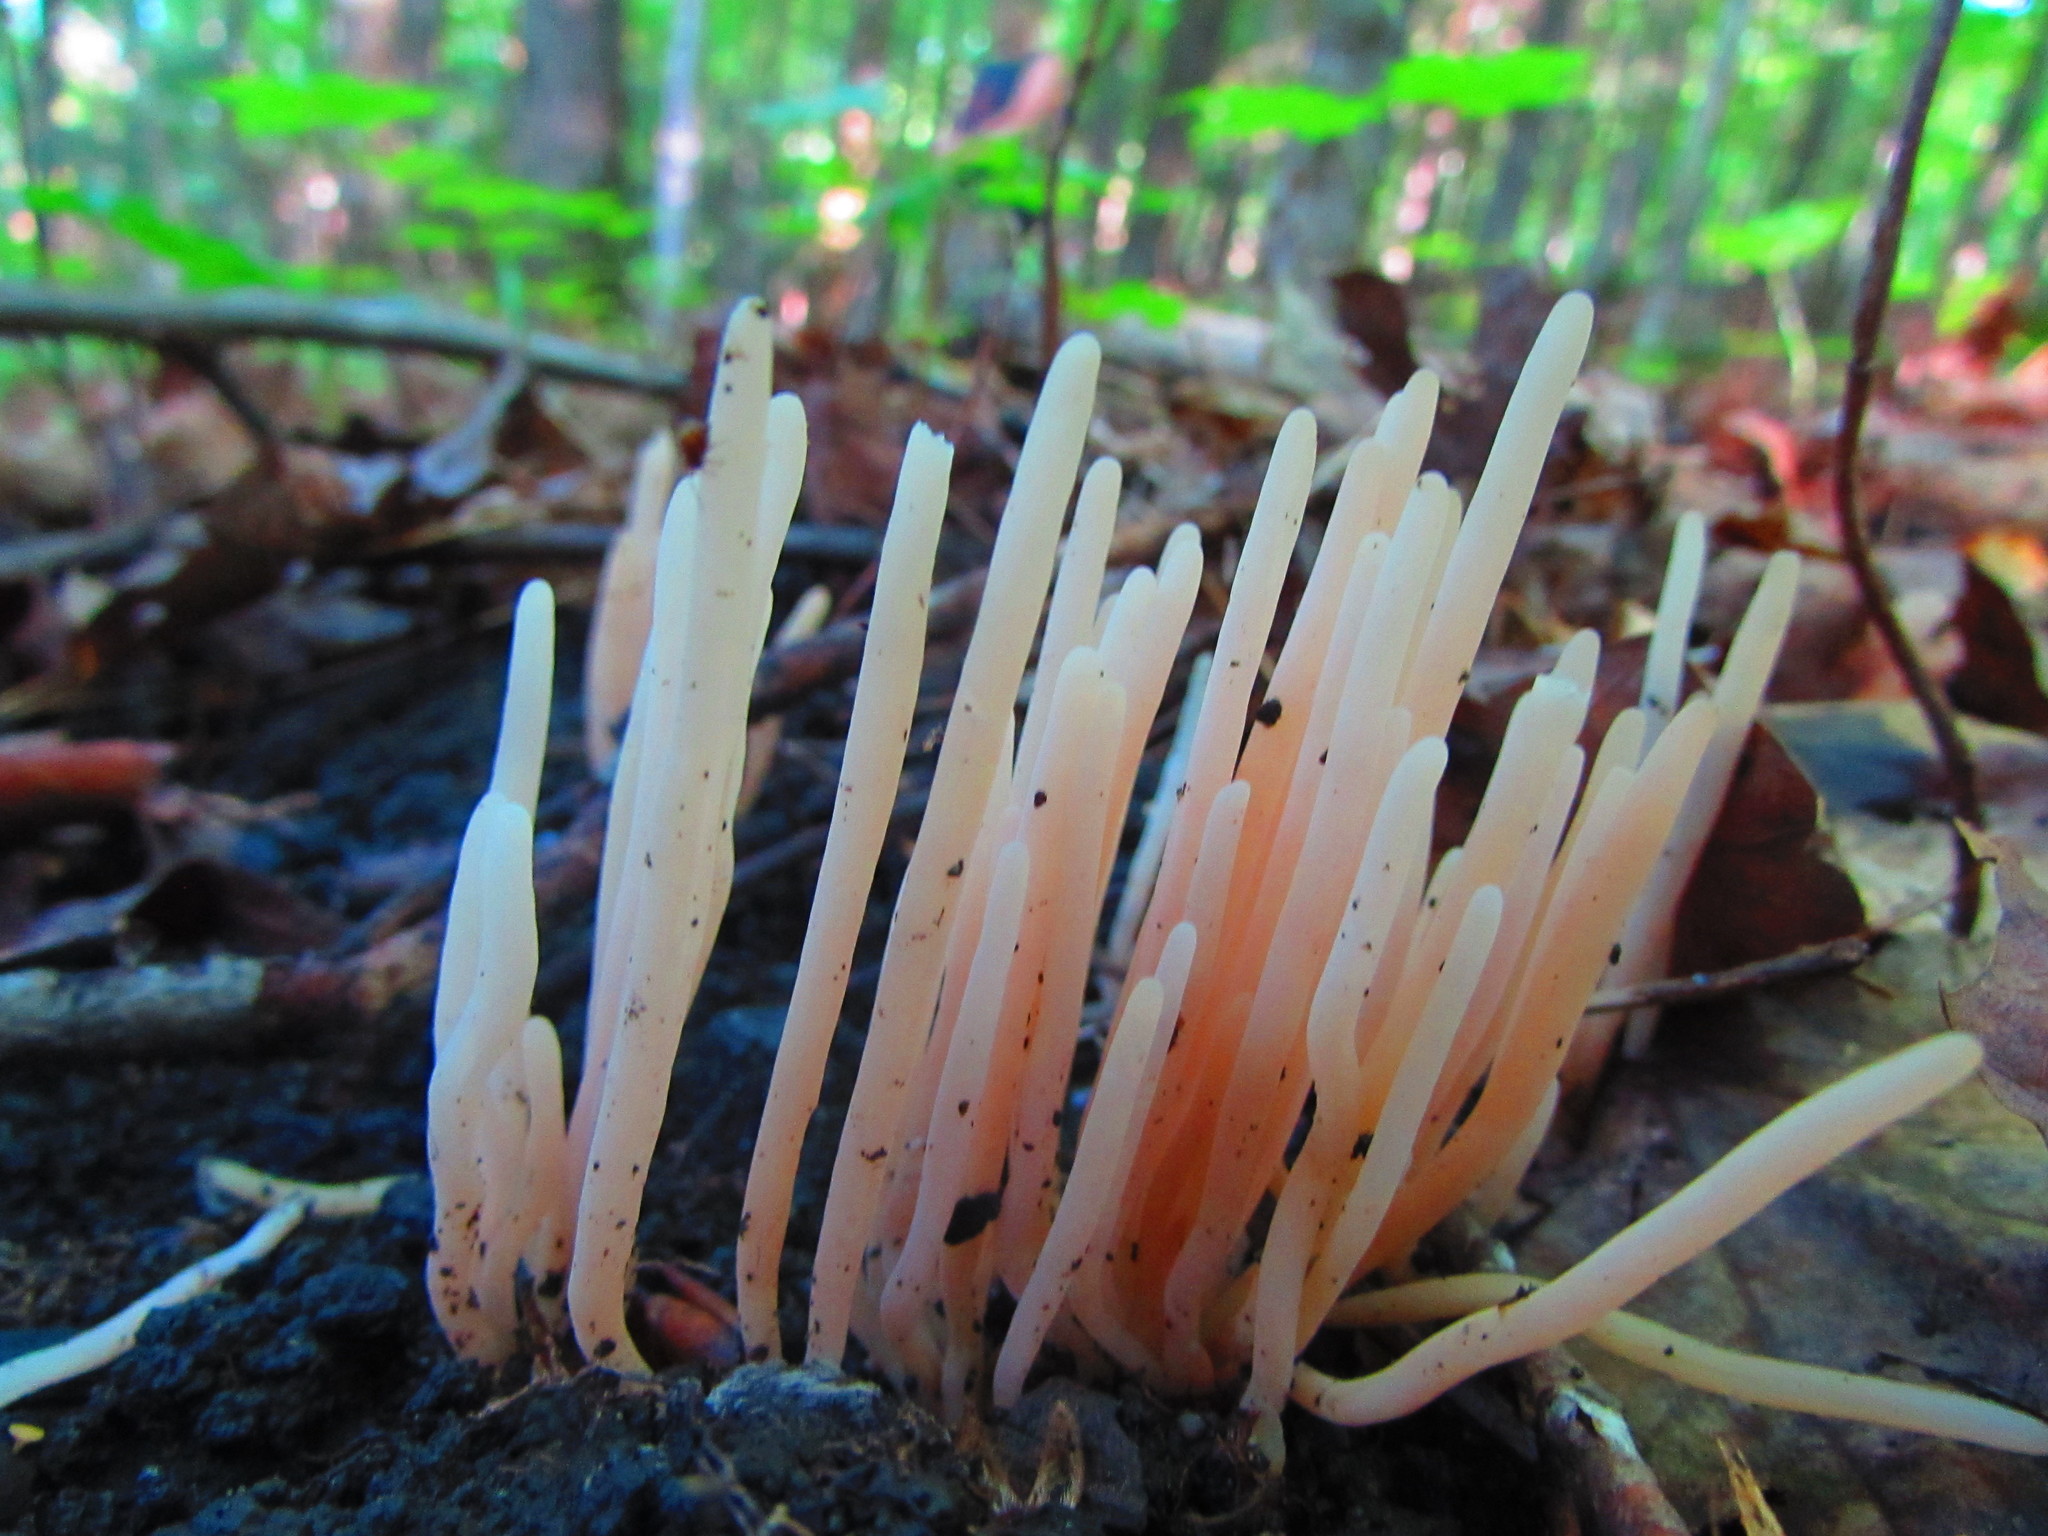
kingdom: Fungi
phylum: Basidiomycota
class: Agaricomycetes
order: Agaricales
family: Clavariaceae
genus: Clavaria
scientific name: Clavaria fragilis
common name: White spindles
